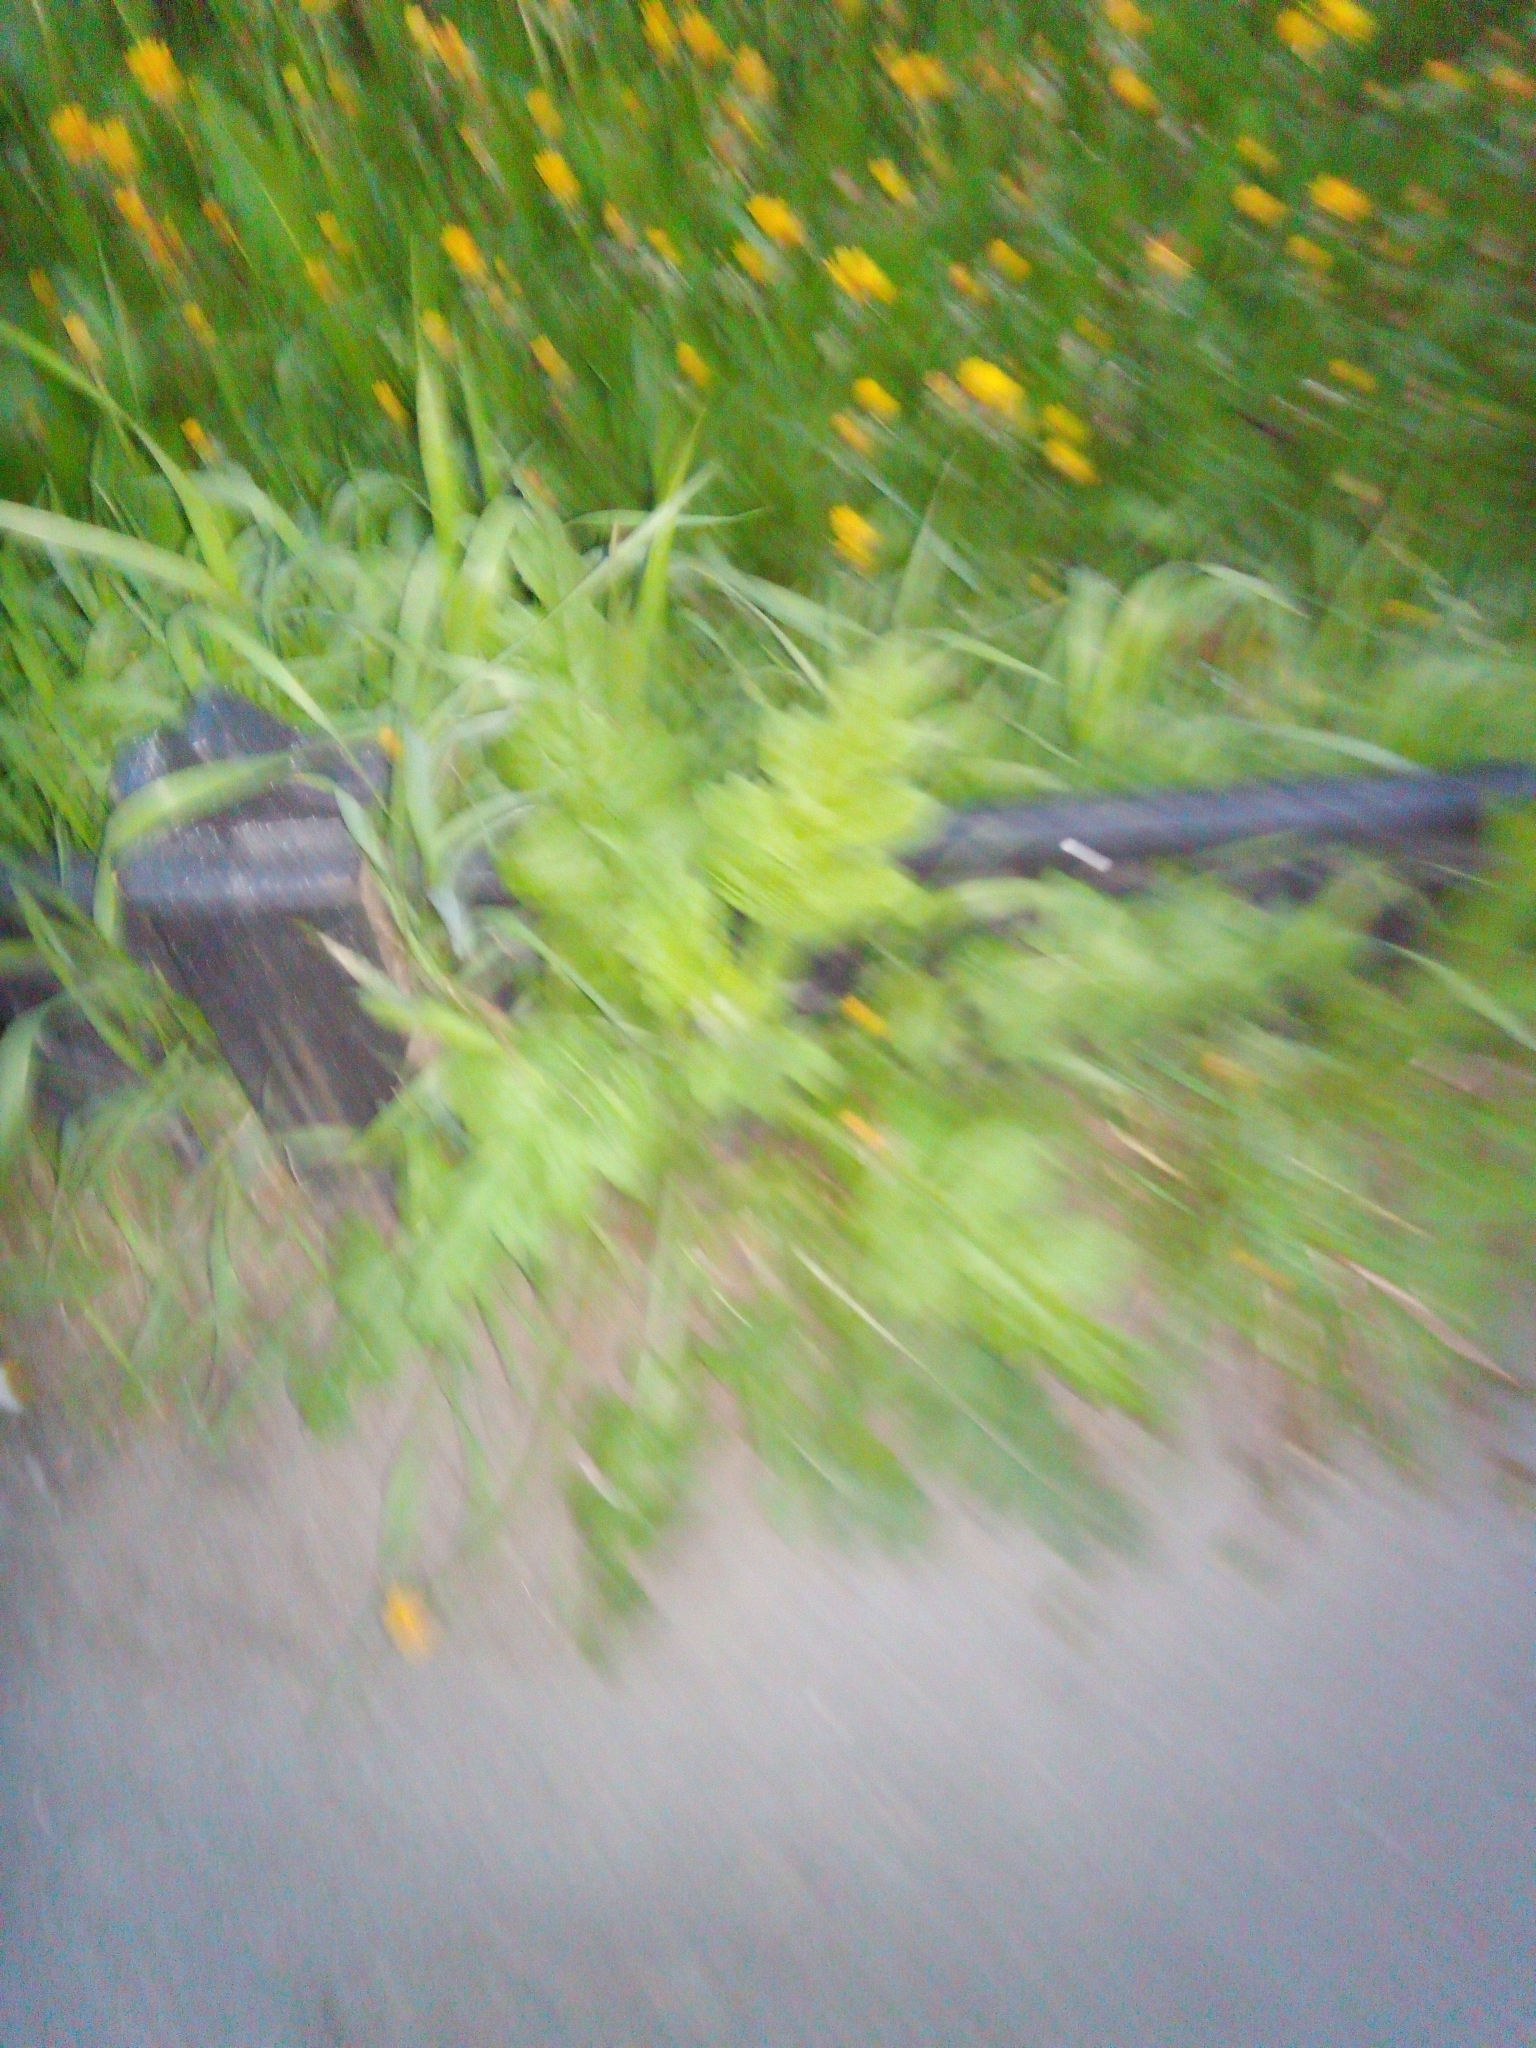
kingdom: Plantae
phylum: Tracheophyta
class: Magnoliopsida
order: Asterales
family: Asteraceae
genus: Carduus
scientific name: Carduus crispus
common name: Welted thistle
